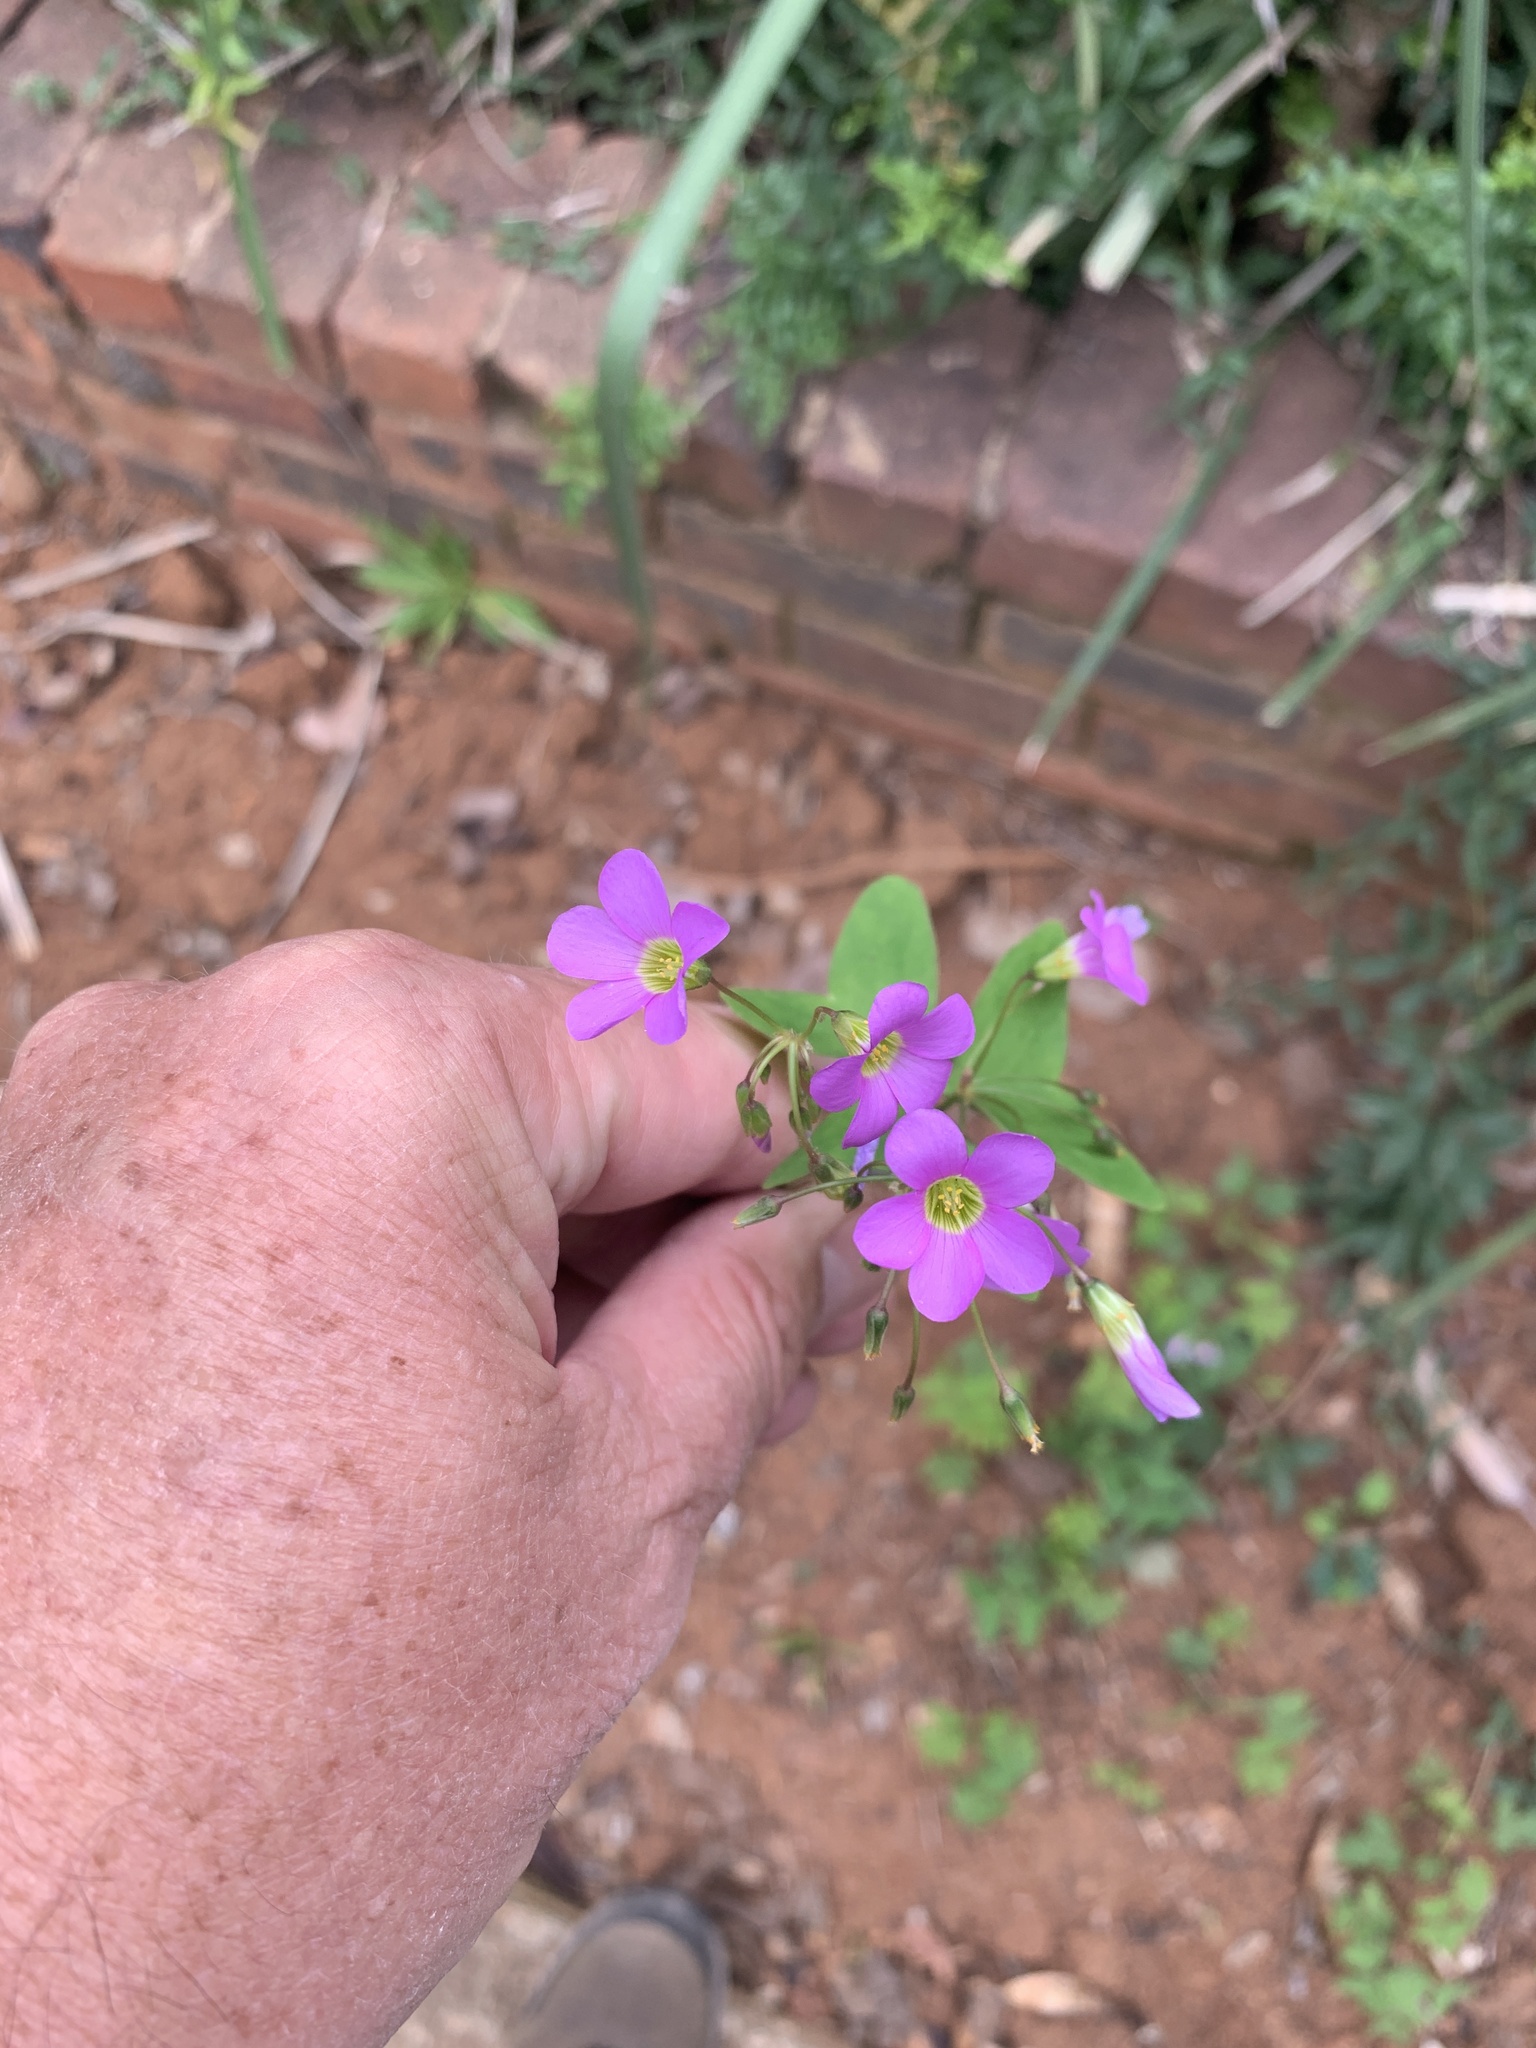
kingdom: Plantae
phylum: Tracheophyta
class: Magnoliopsida
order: Oxalidales
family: Oxalidaceae
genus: Oxalis
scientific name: Oxalis latifolia
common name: Garden pink-sorrel
